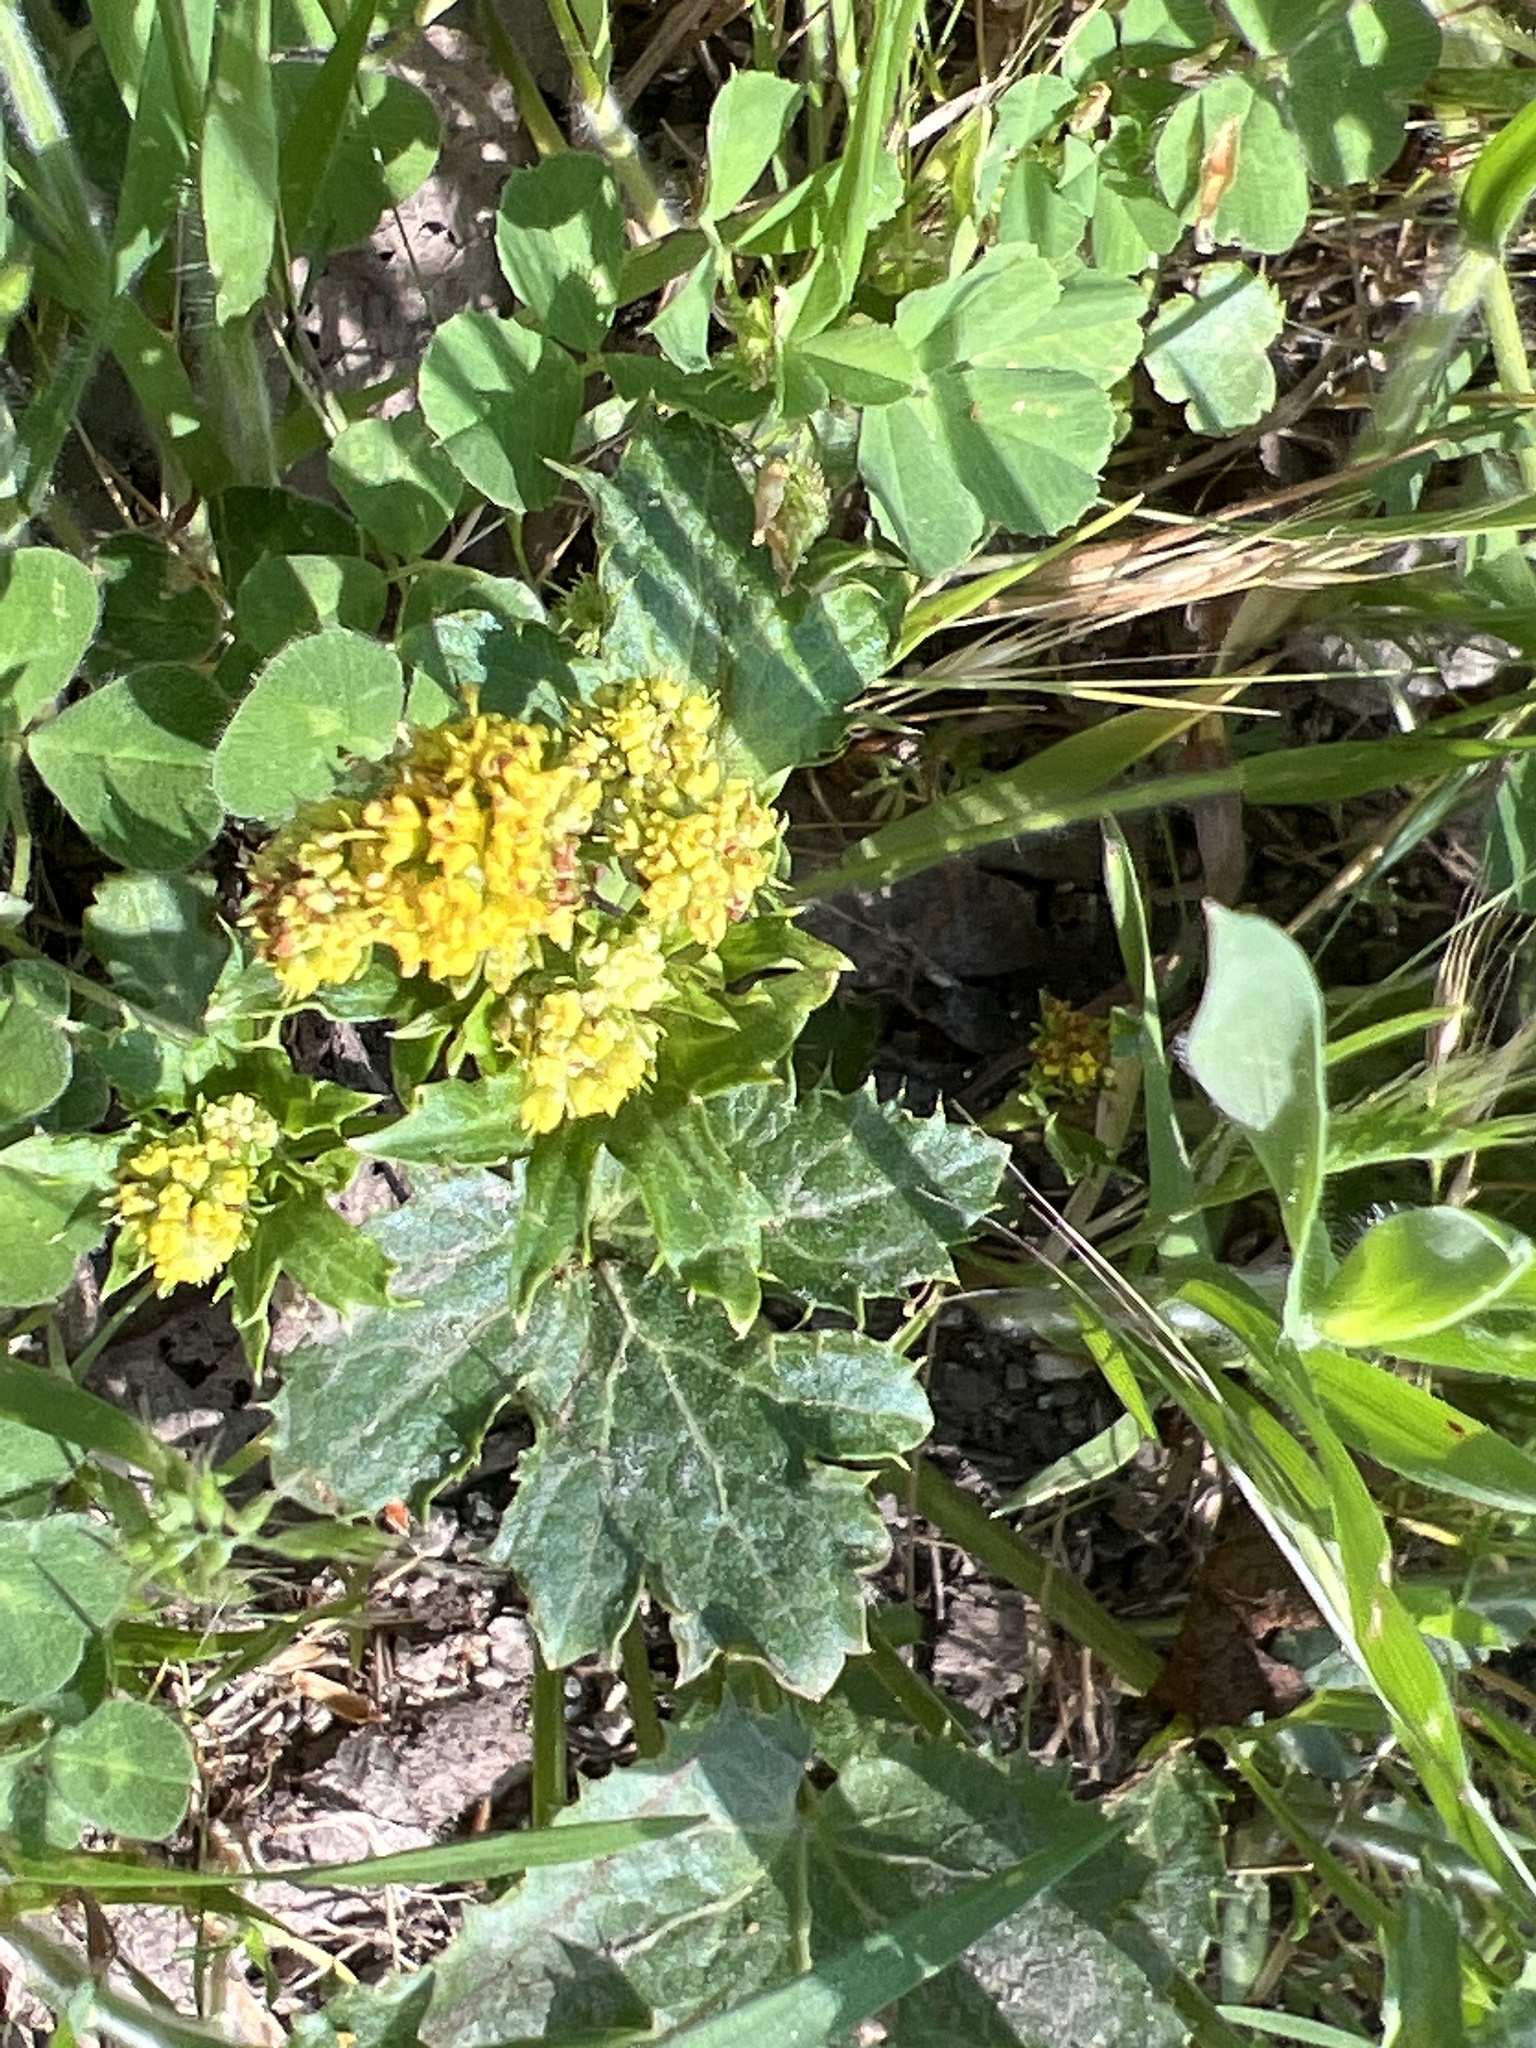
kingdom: Plantae
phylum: Tracheophyta
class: Magnoliopsida
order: Apiales
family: Apiaceae
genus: Sanicula
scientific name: Sanicula crassicaulis
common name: Western snakeroot
